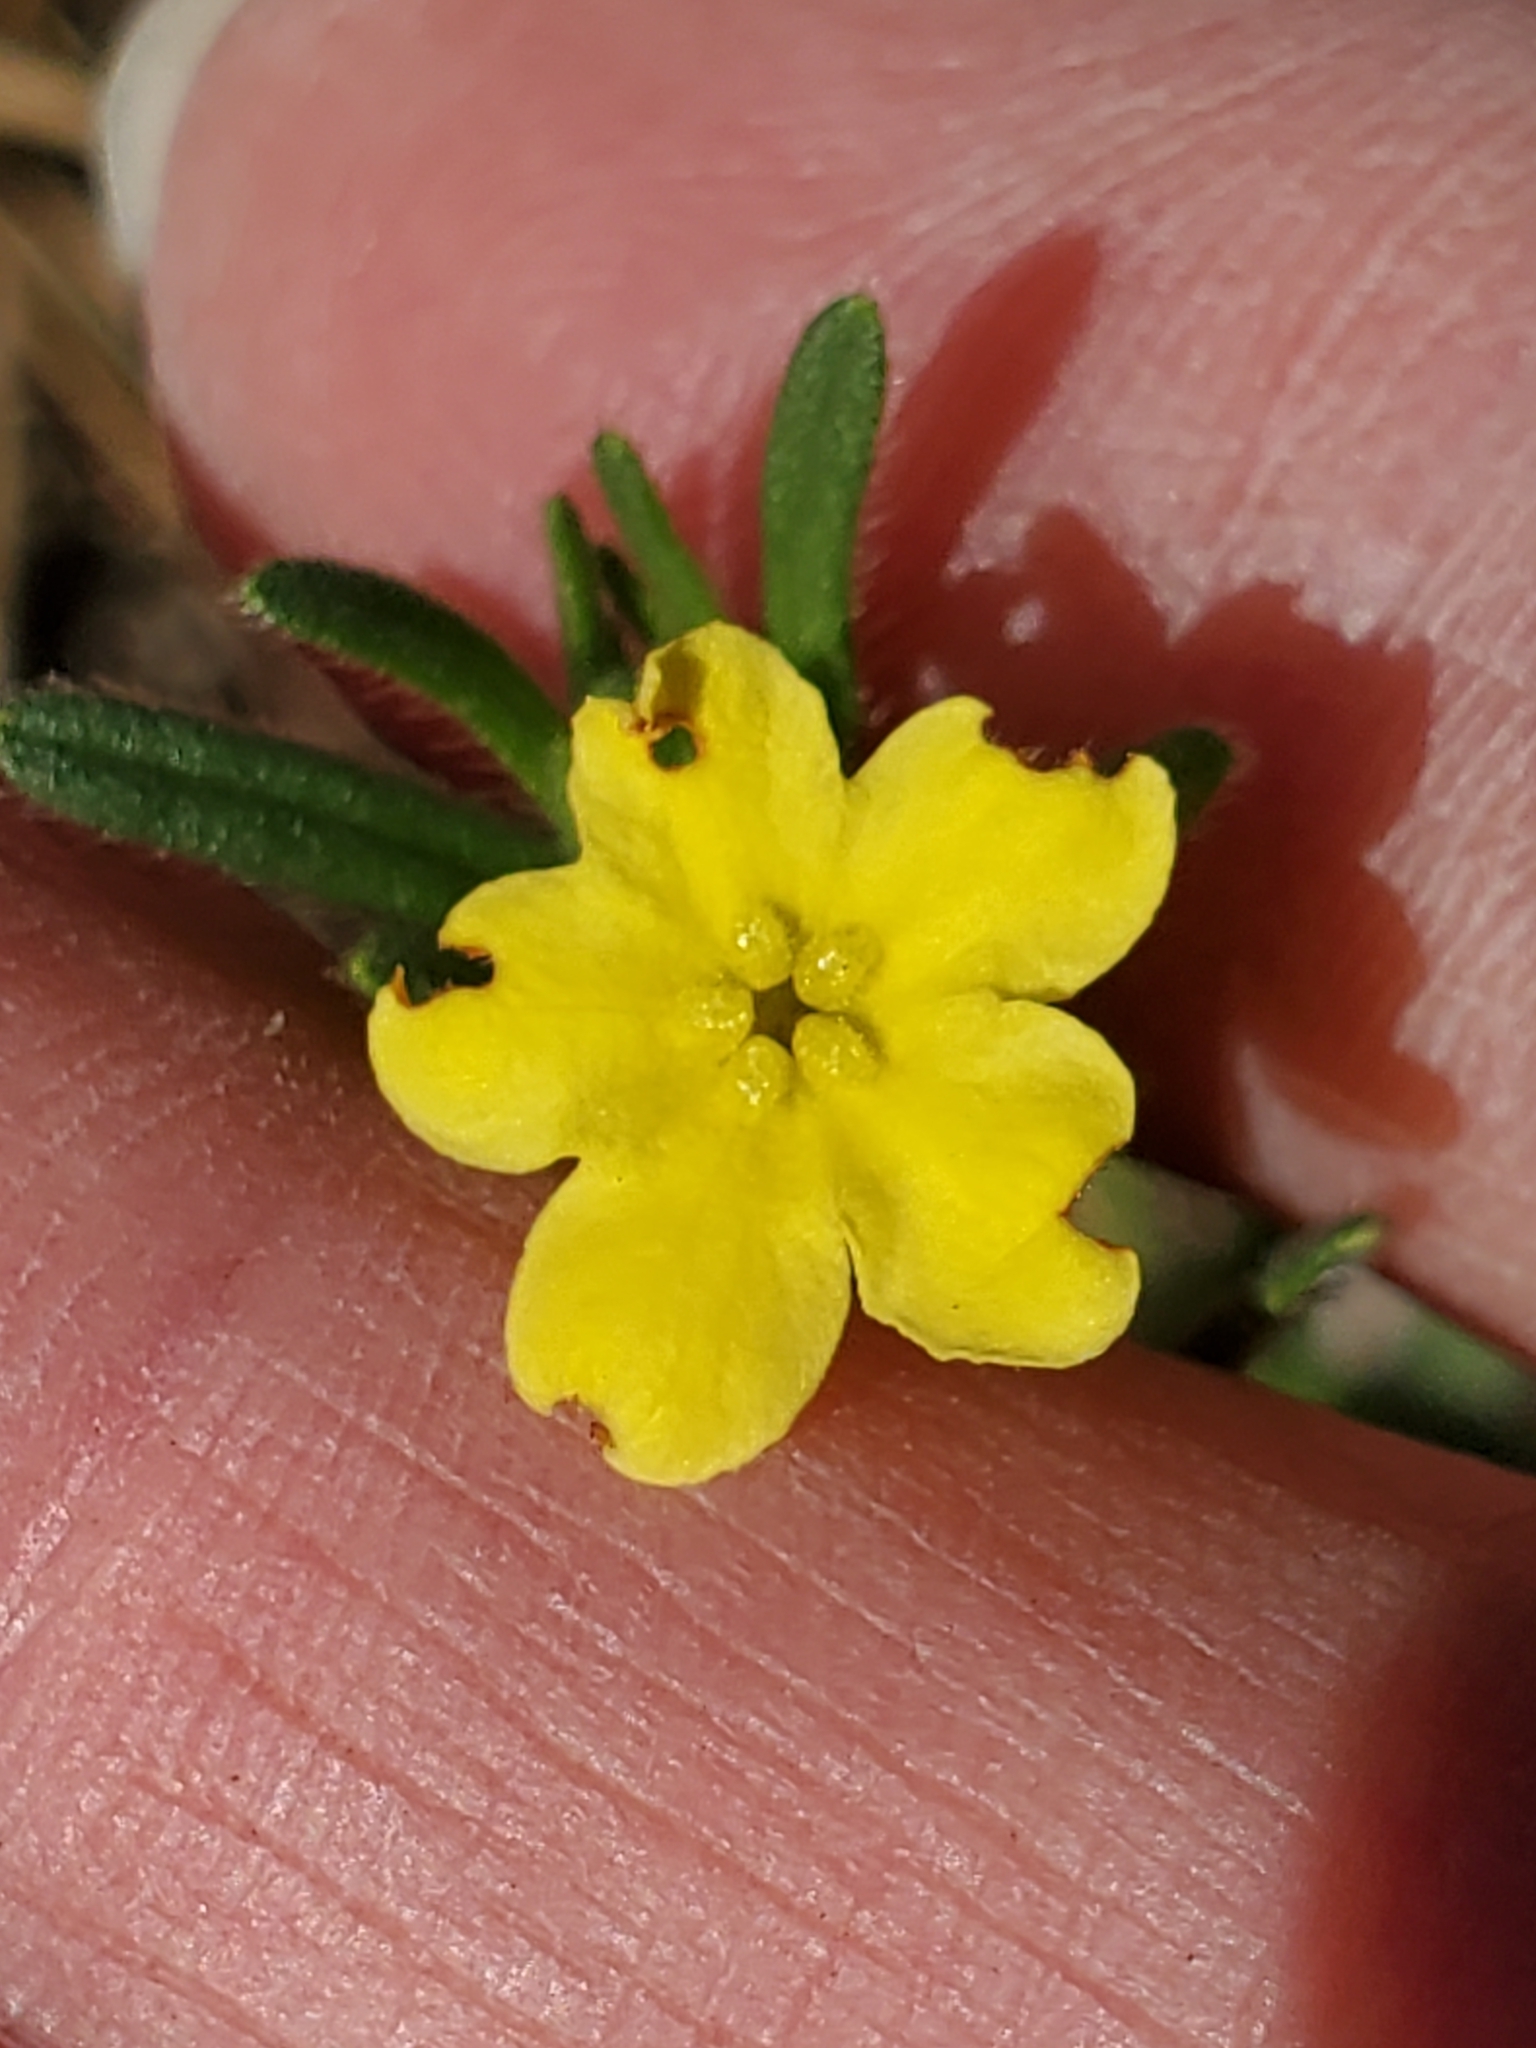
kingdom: Plantae
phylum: Tracheophyta
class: Magnoliopsida
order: Boraginales
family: Boraginaceae
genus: Lithospermum
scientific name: Lithospermum mirabile
